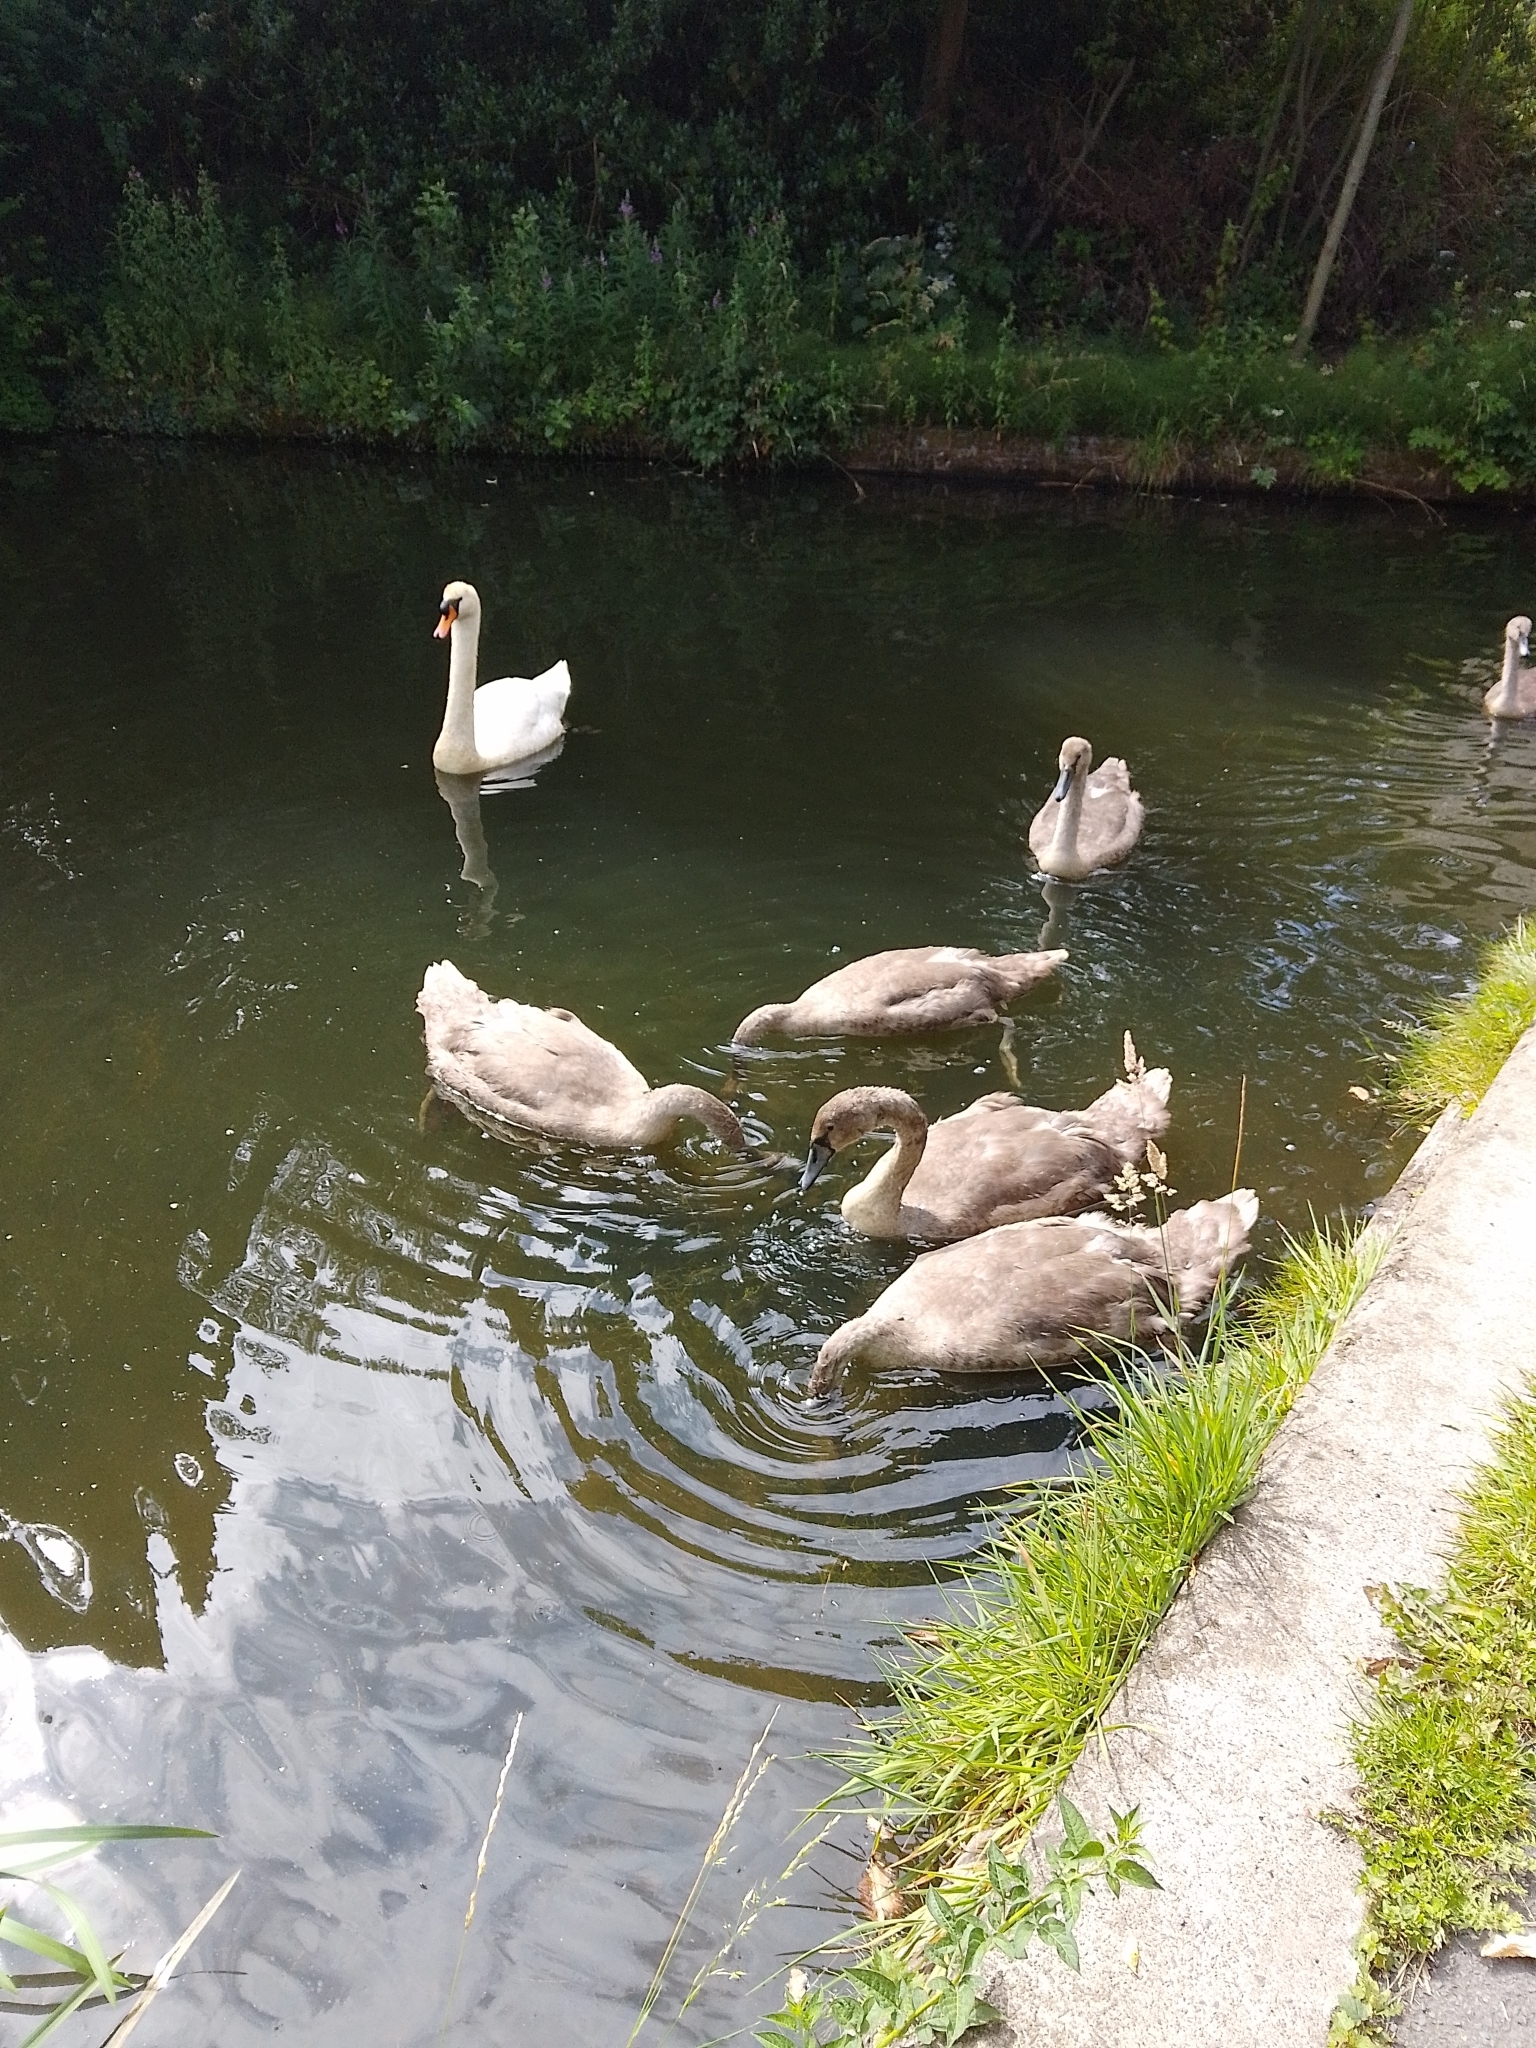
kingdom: Animalia
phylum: Chordata
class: Aves
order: Anseriformes
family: Anatidae
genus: Cygnus
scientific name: Cygnus olor
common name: Mute swan
